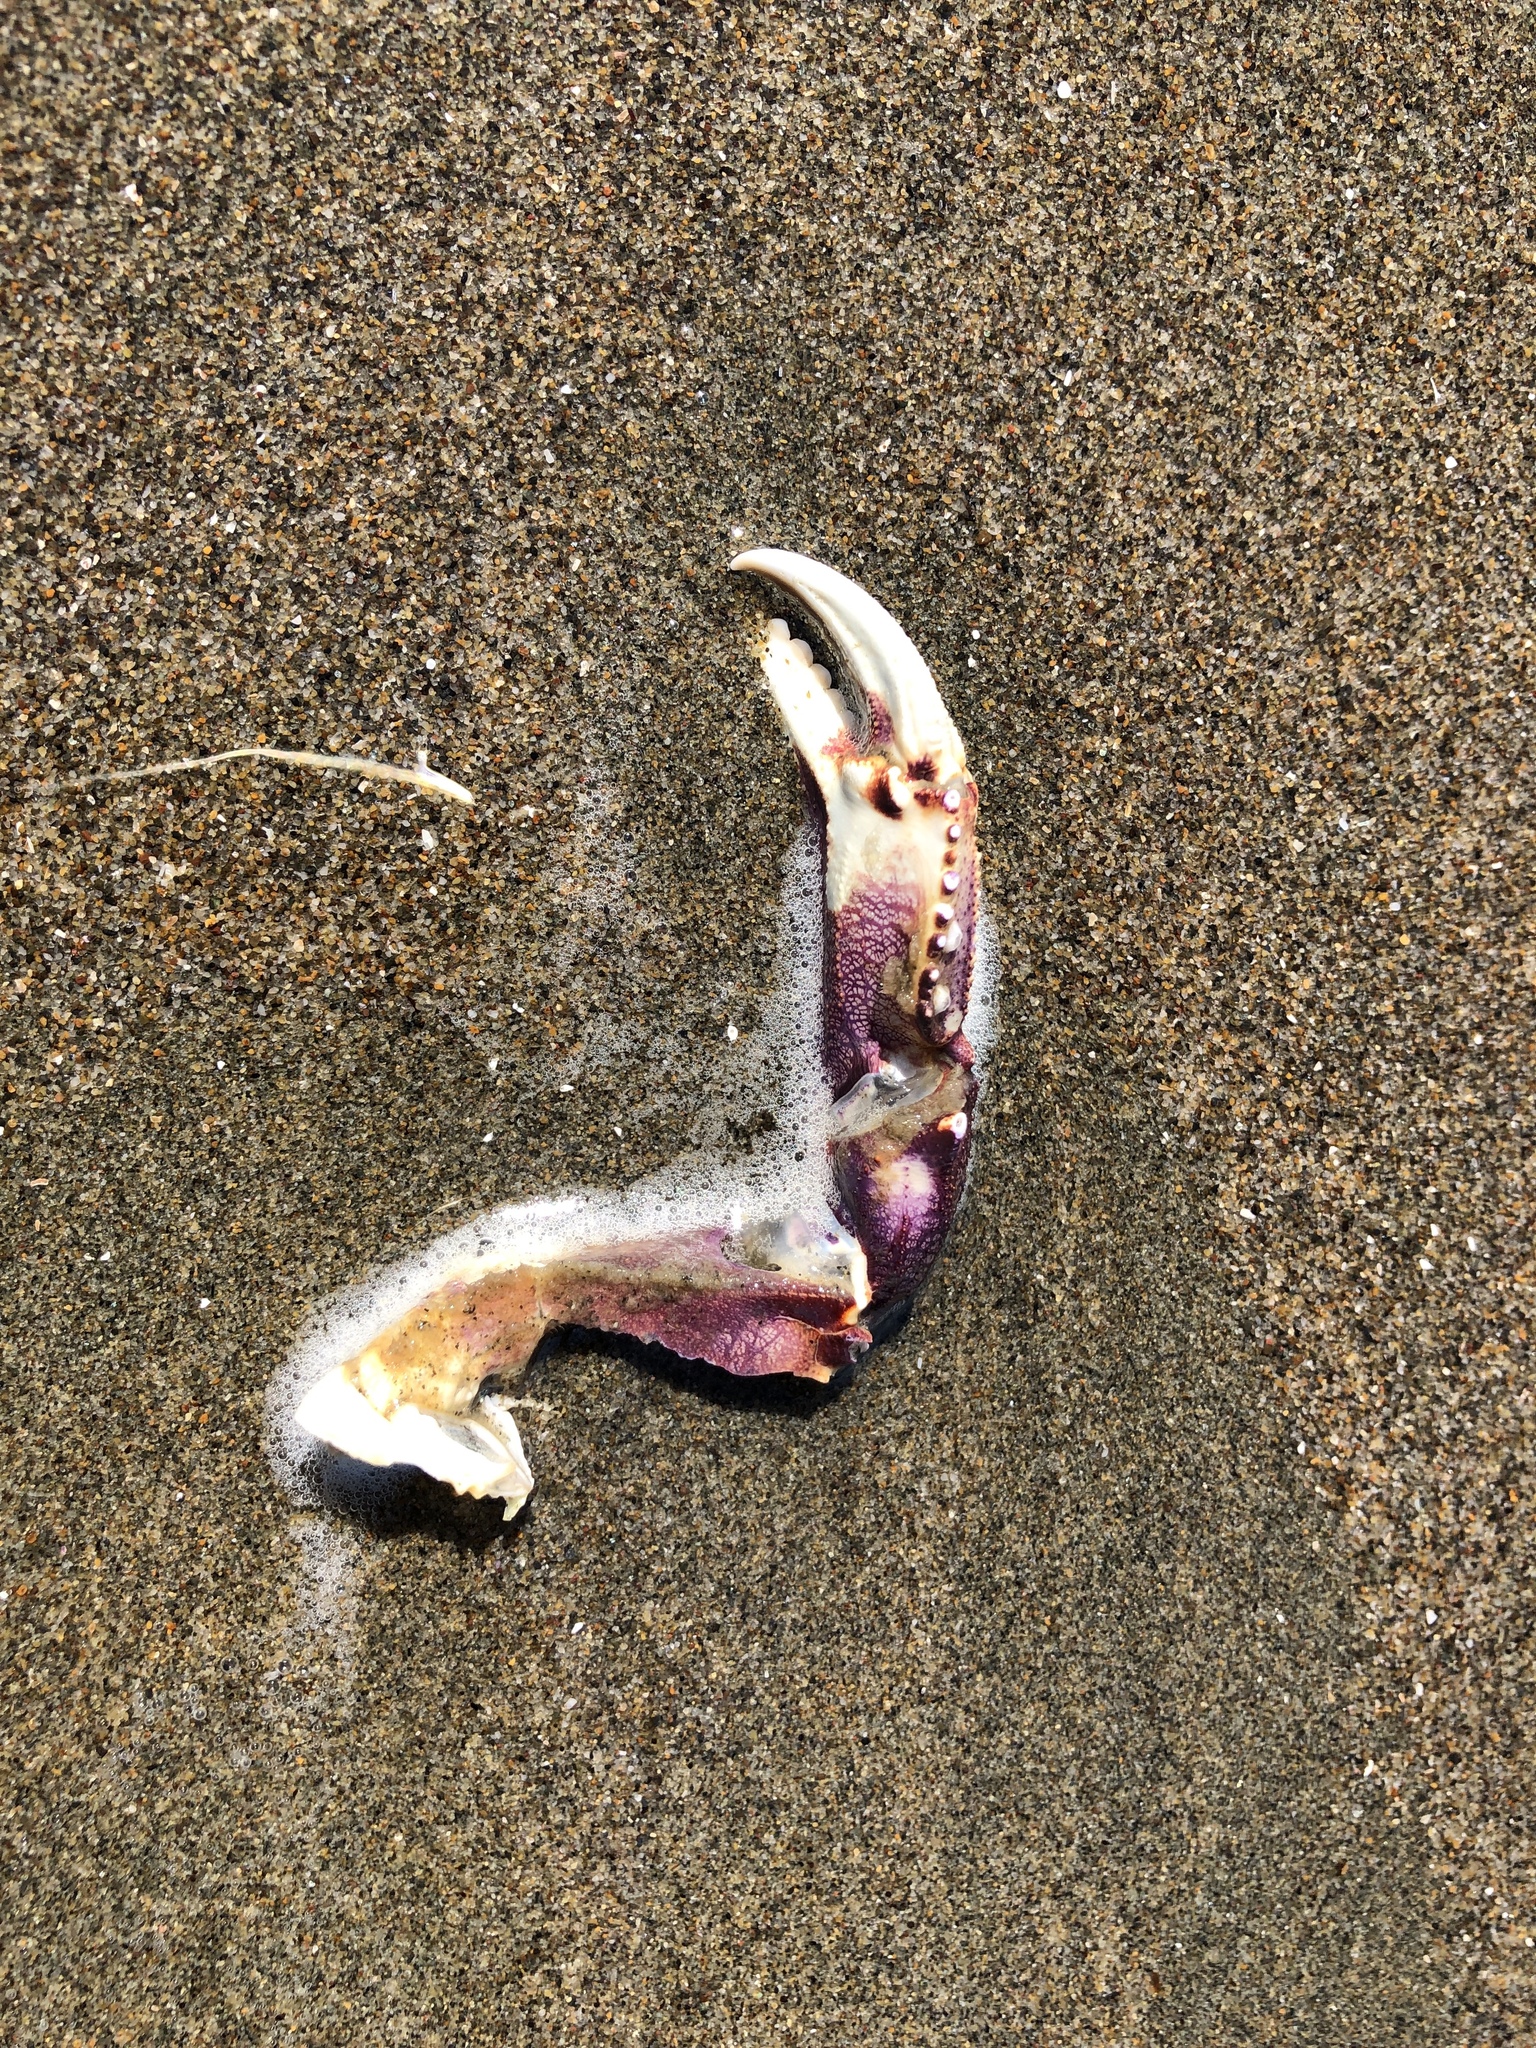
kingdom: Animalia
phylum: Arthropoda
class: Malacostraca
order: Decapoda
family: Cancridae
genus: Metacarcinus
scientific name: Metacarcinus magister
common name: Californian crab
